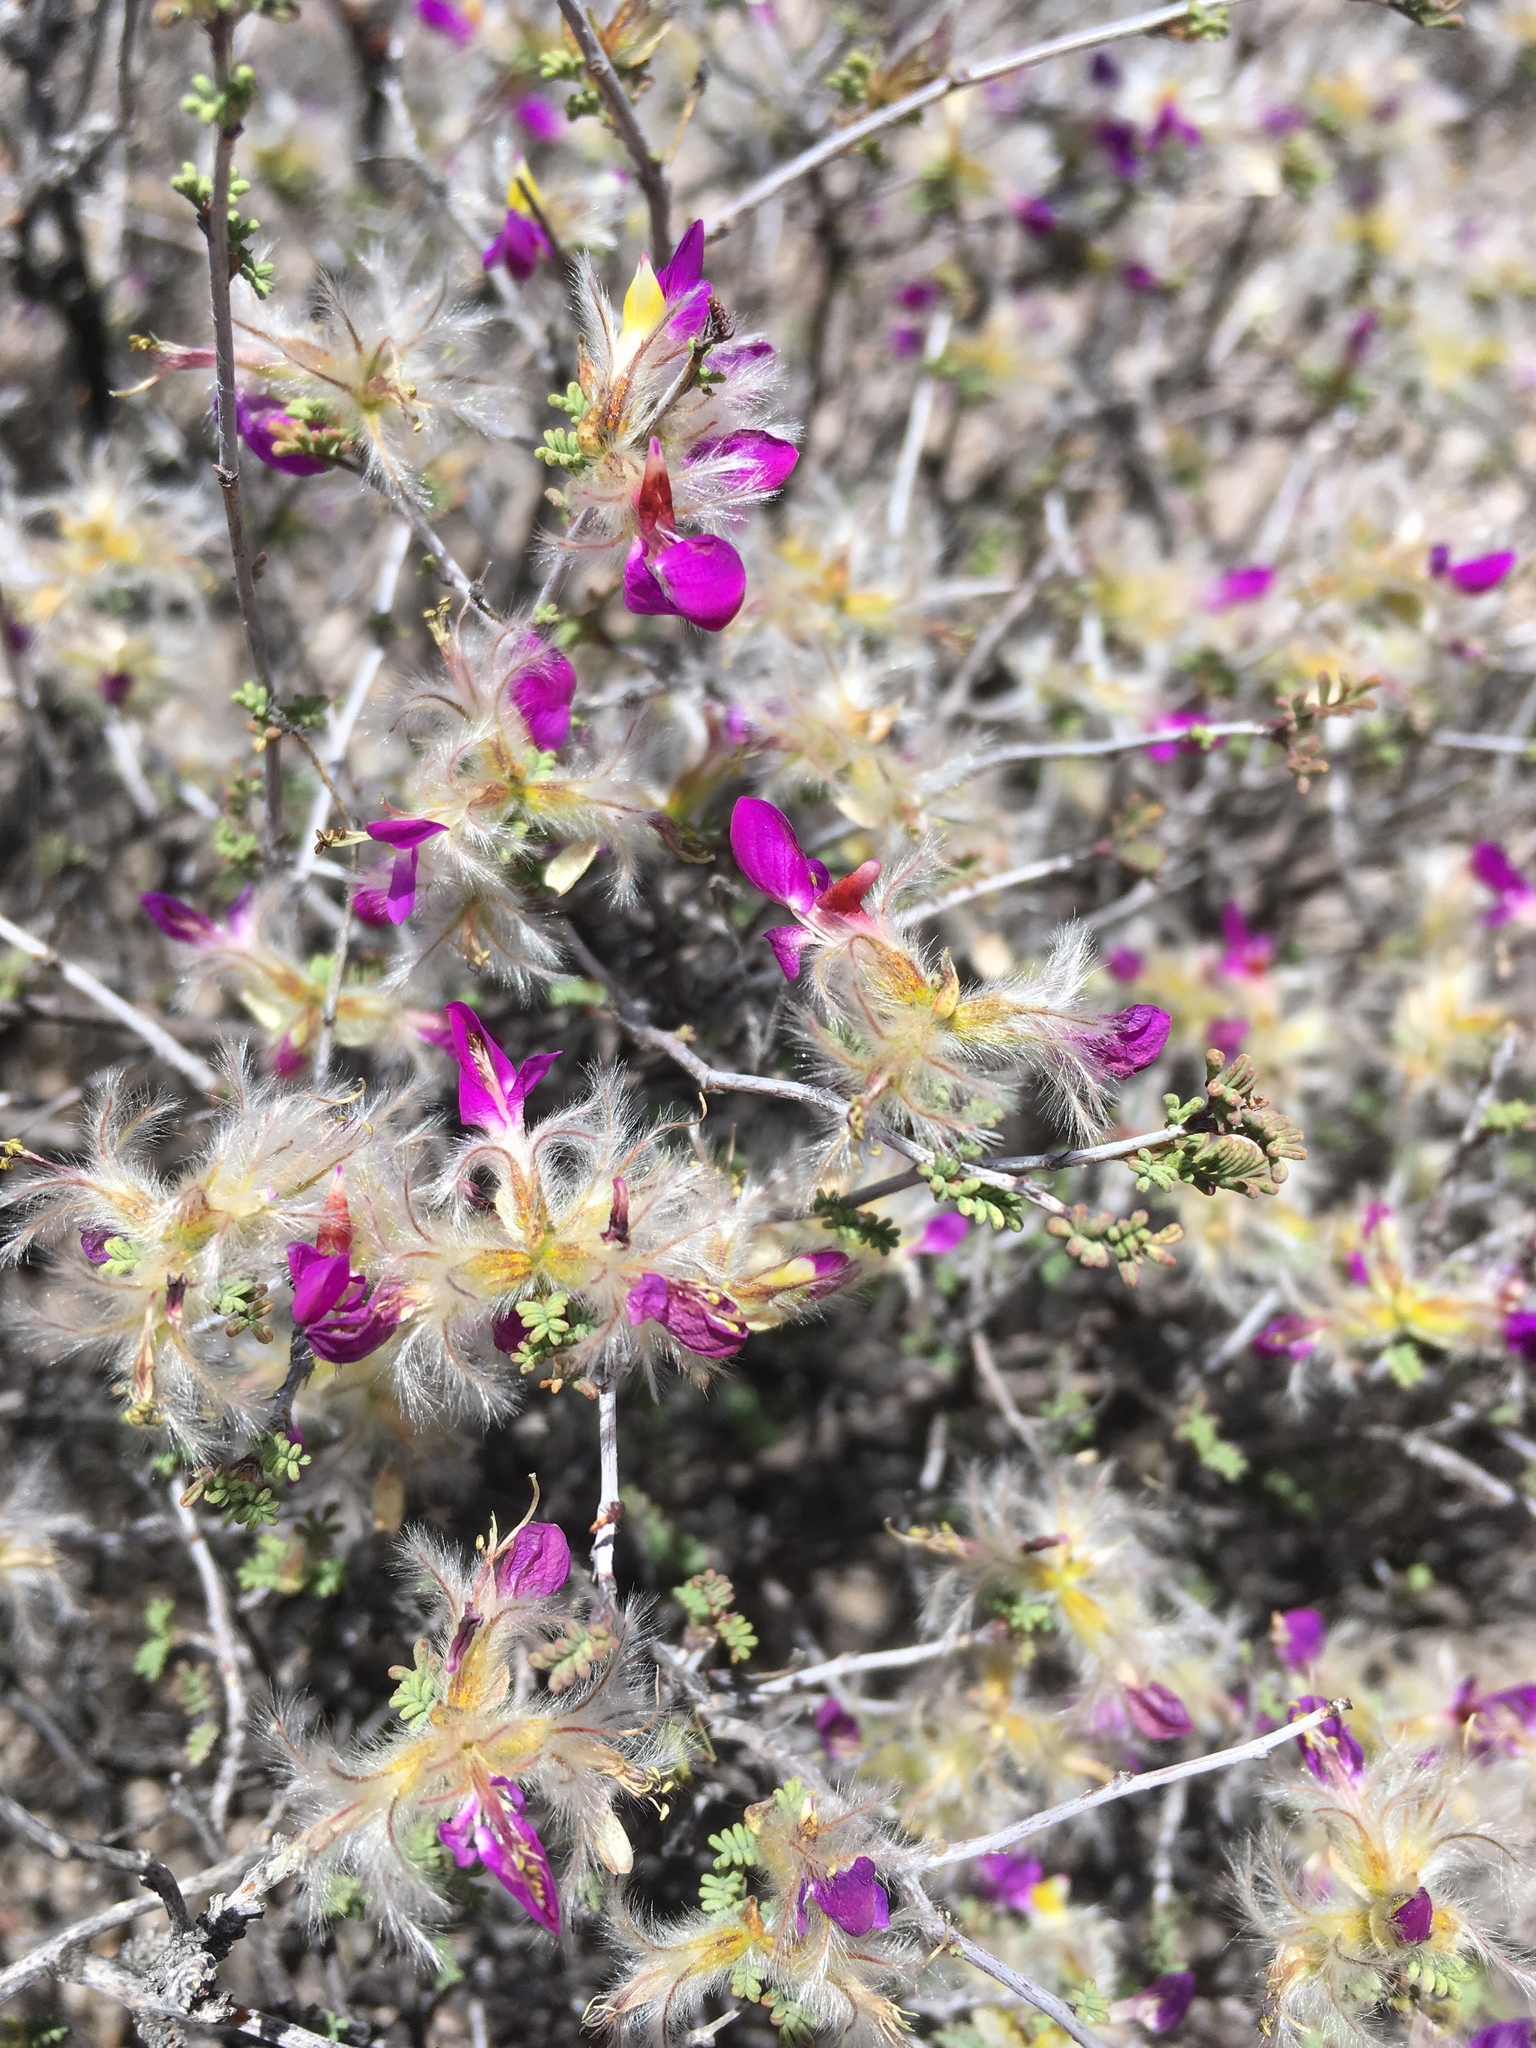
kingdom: Plantae
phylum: Tracheophyta
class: Magnoliopsida
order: Fabales
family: Fabaceae
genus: Dalea
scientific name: Dalea formosa
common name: Feather-plume dalea
